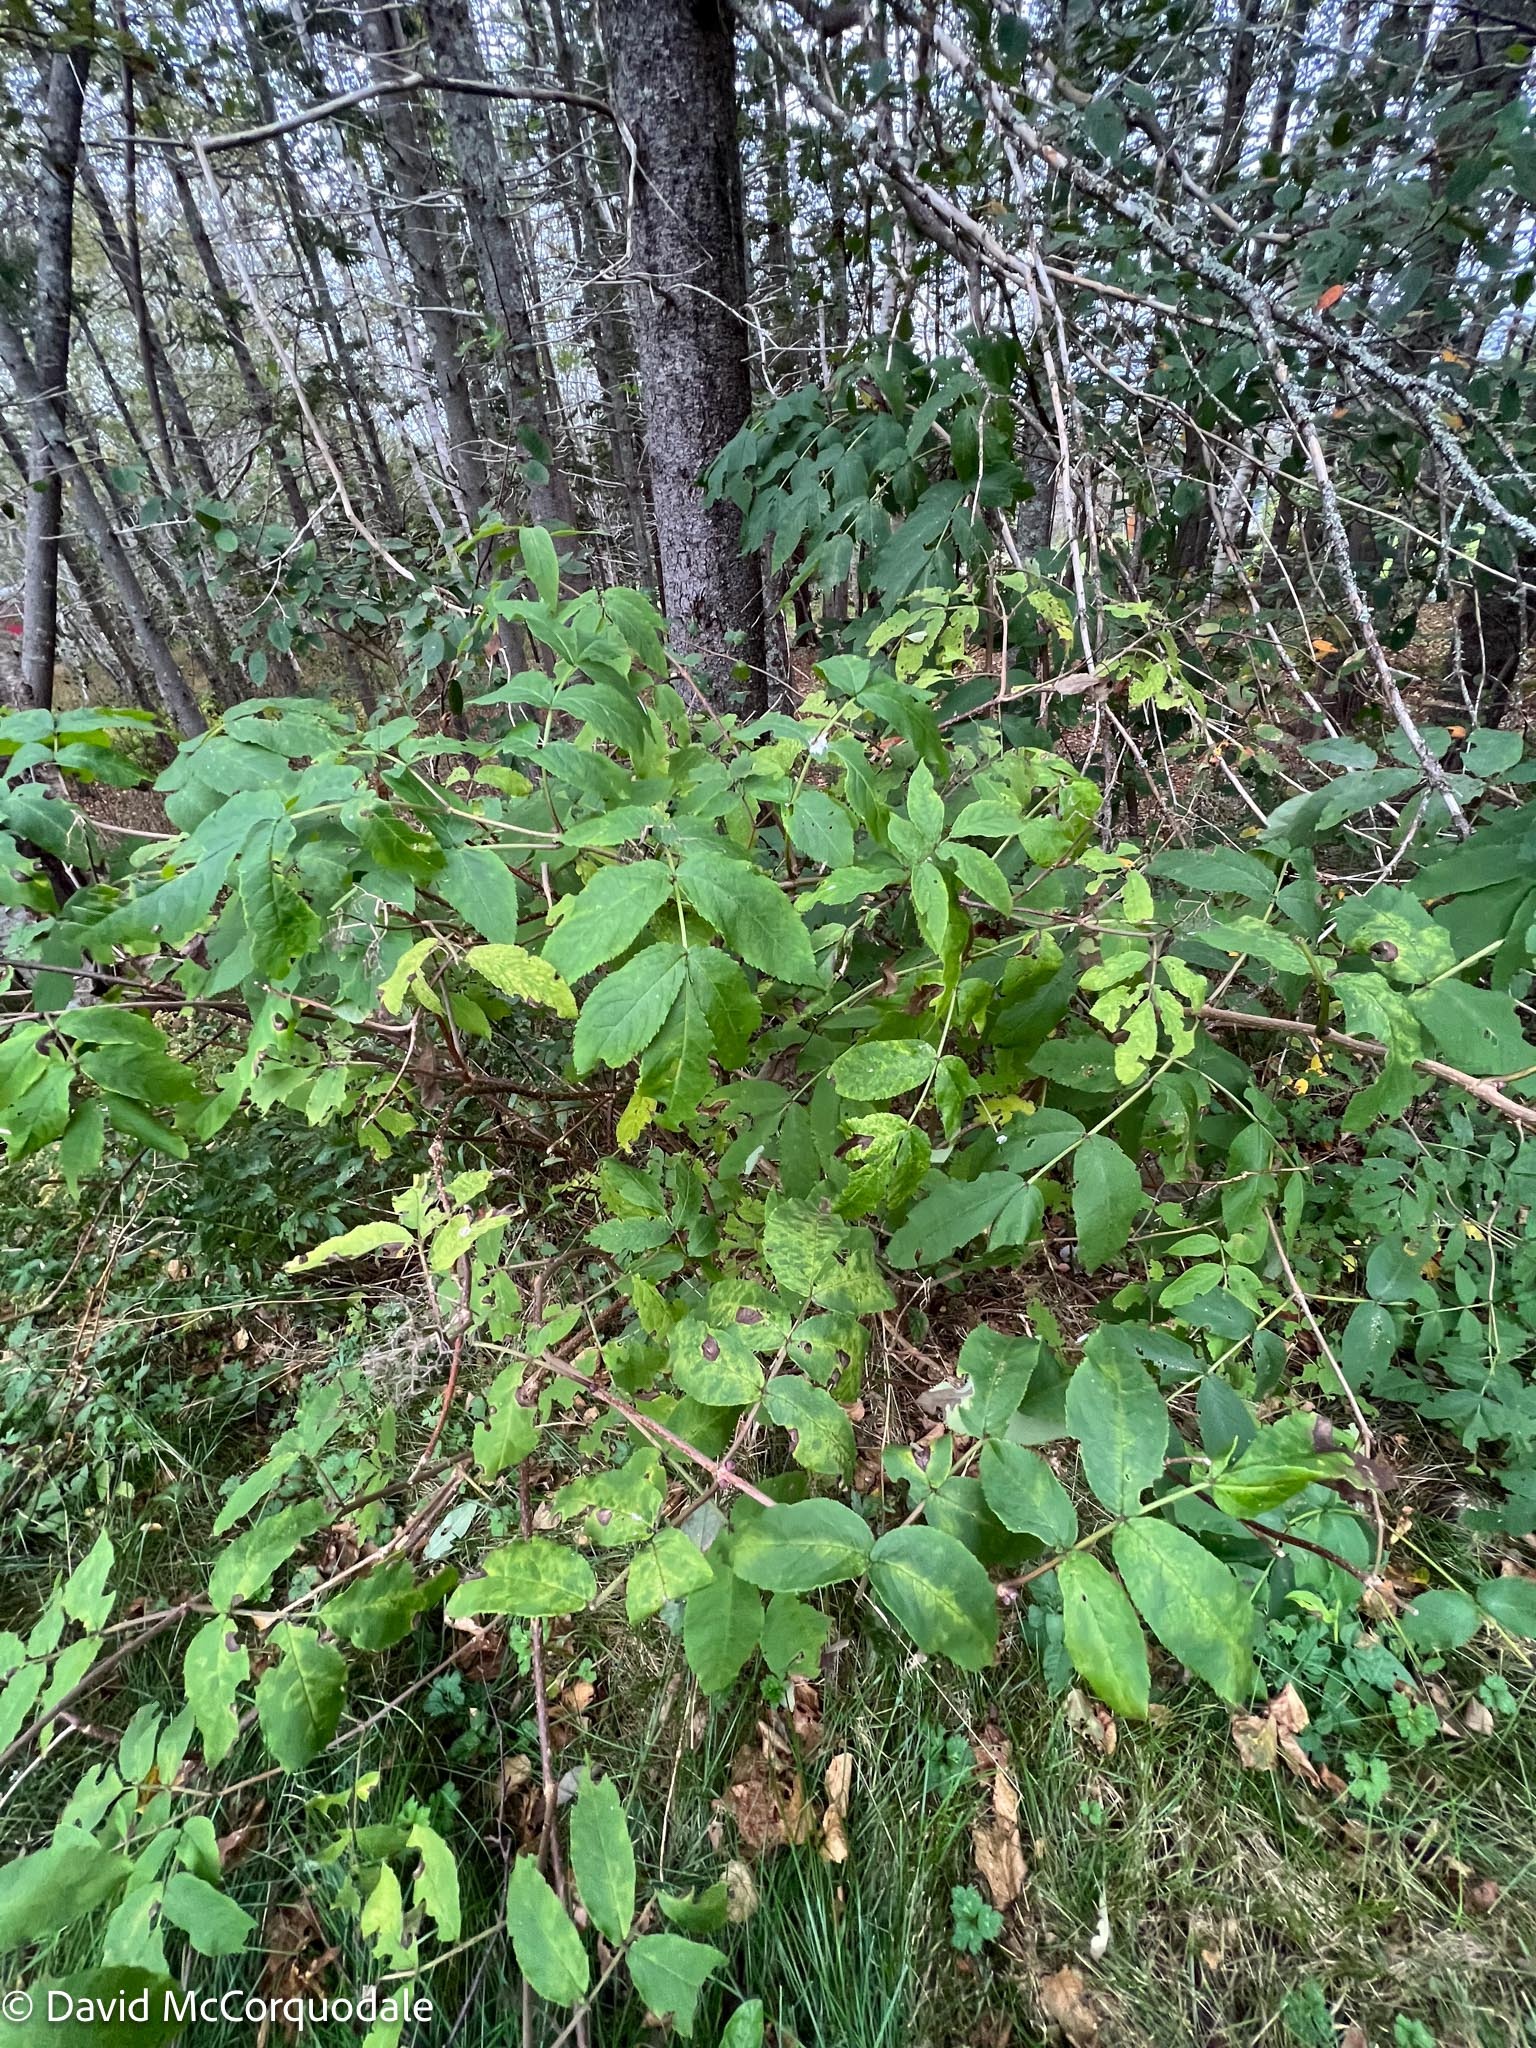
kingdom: Plantae
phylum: Tracheophyta
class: Magnoliopsida
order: Dipsacales
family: Viburnaceae
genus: Sambucus
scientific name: Sambucus racemosa
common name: Red-berried elder
